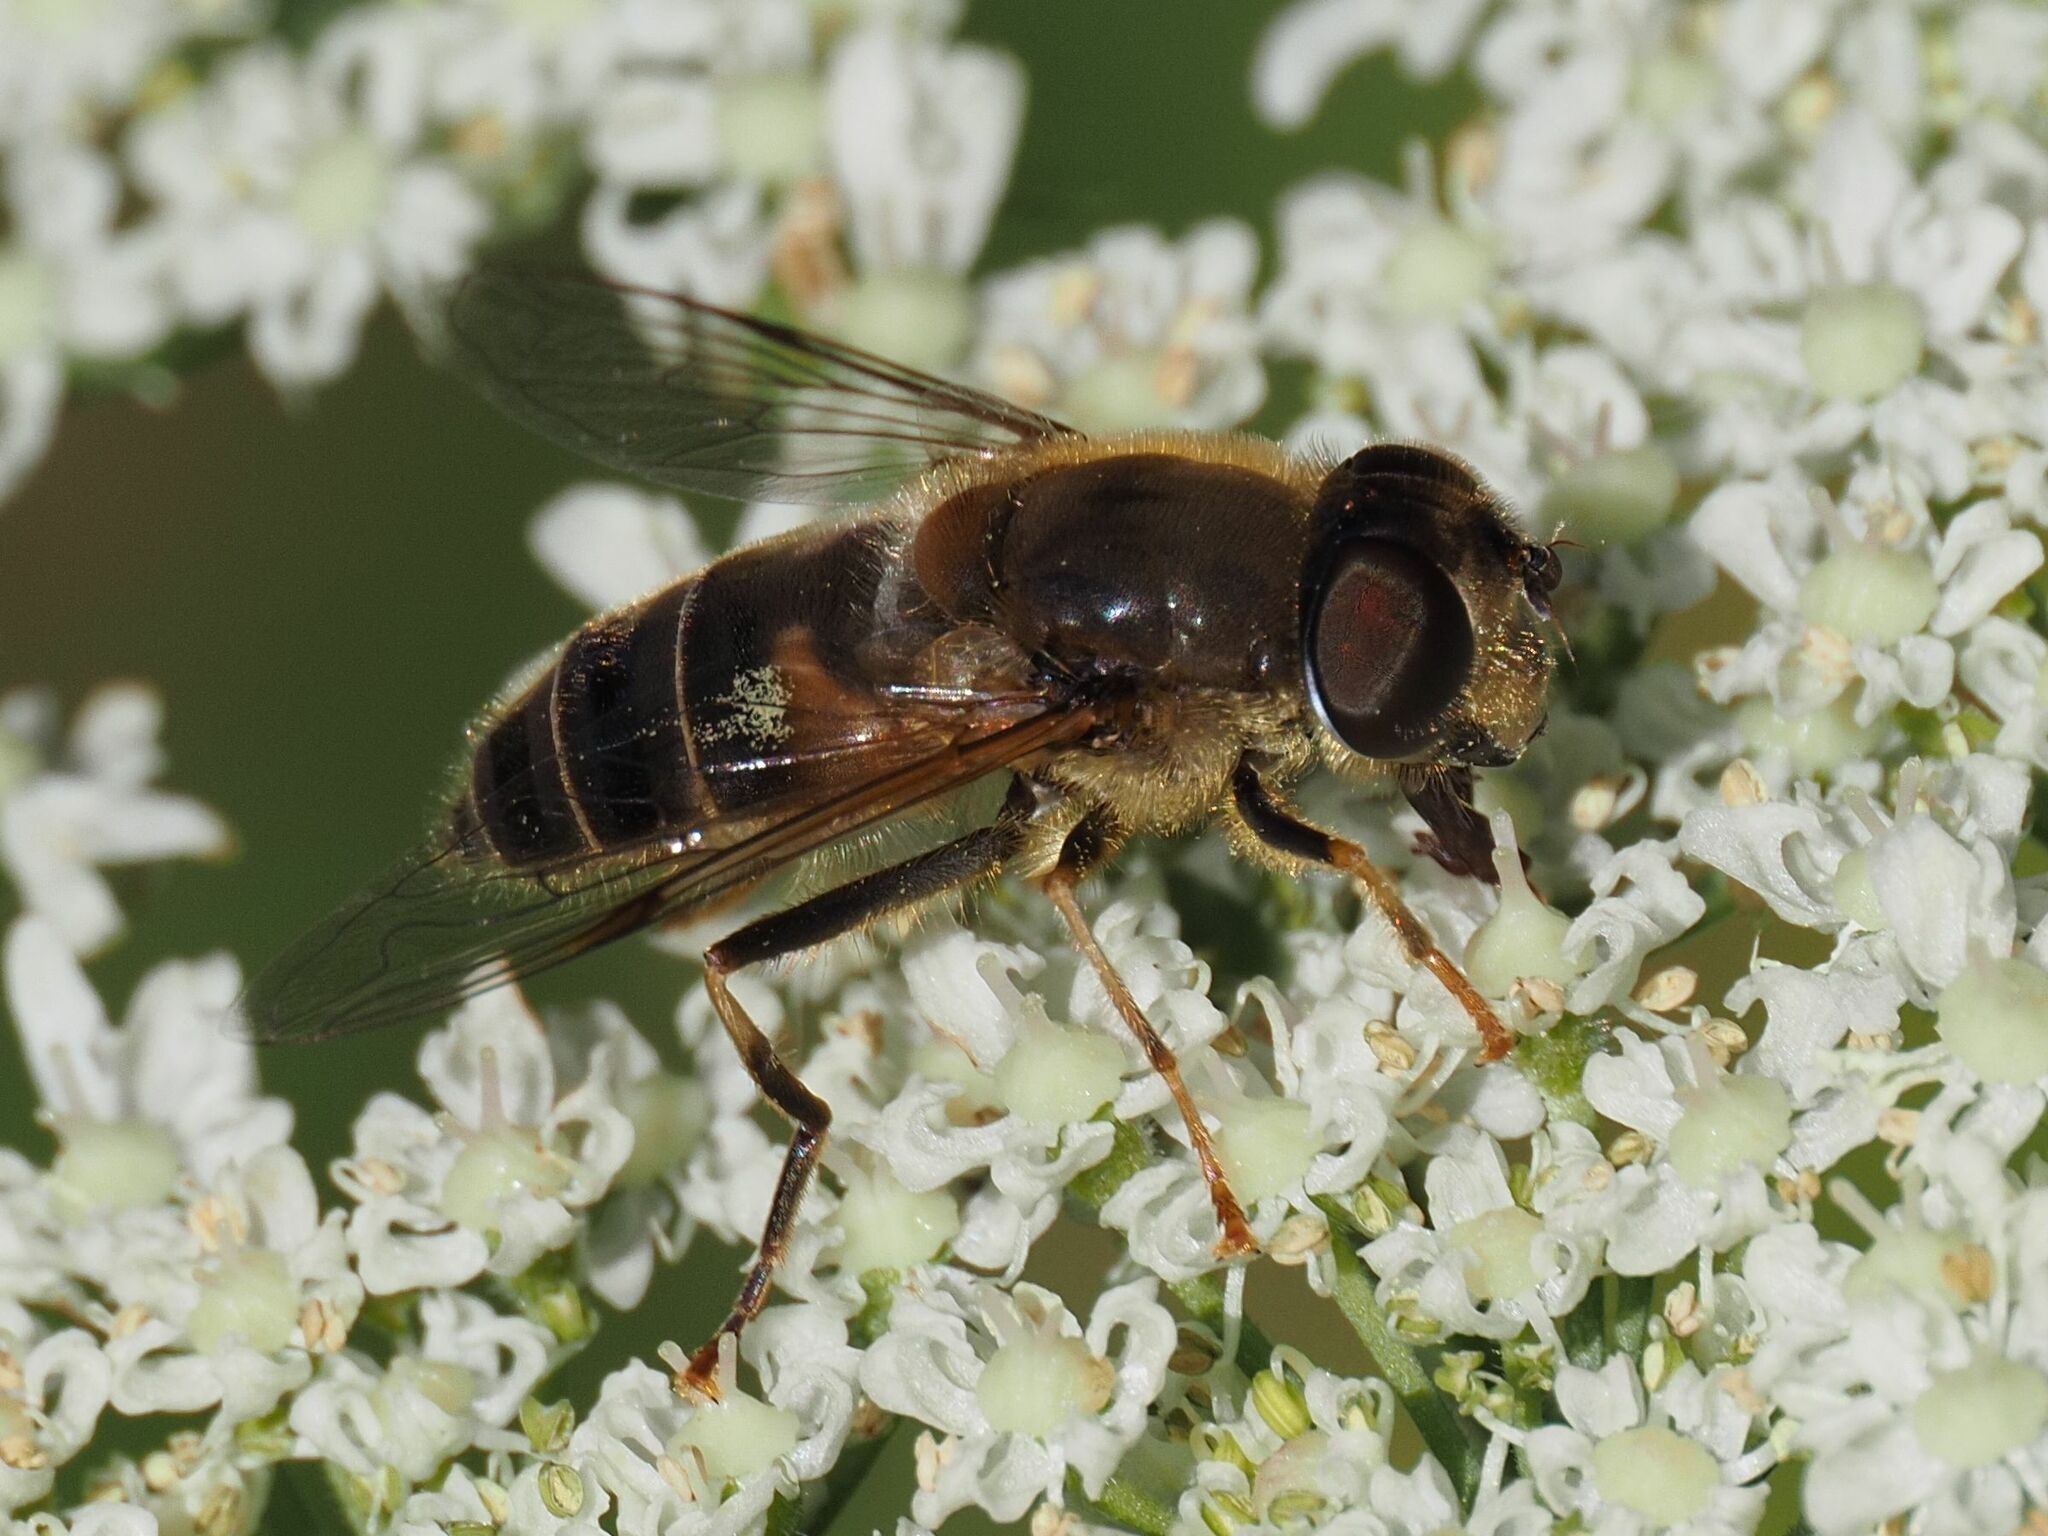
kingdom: Animalia
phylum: Arthropoda
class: Insecta
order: Diptera
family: Syrphidae
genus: Eristalis
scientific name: Eristalis pertinax
